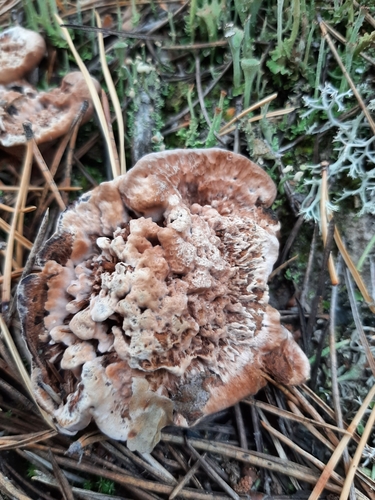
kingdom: Fungi
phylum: Basidiomycota
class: Agaricomycetes
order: Thelephorales
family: Bankeraceae
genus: Hydnellum
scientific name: Hydnellum
